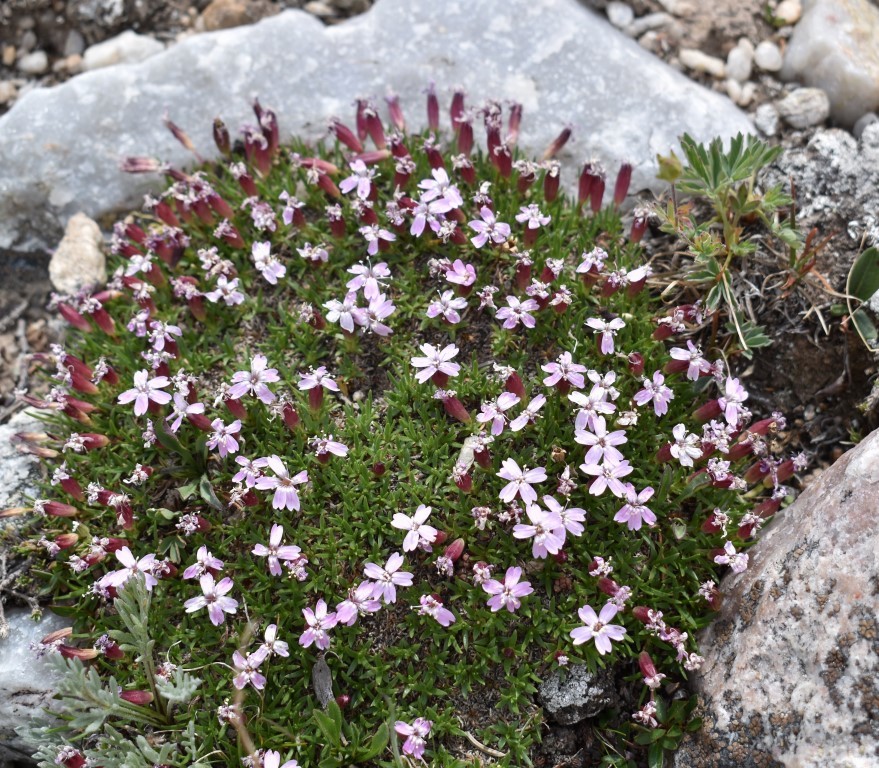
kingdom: Plantae
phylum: Tracheophyta
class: Magnoliopsida
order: Caryophyllales
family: Caryophyllaceae
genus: Silene
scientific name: Silene acaulis
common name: Moss campion
